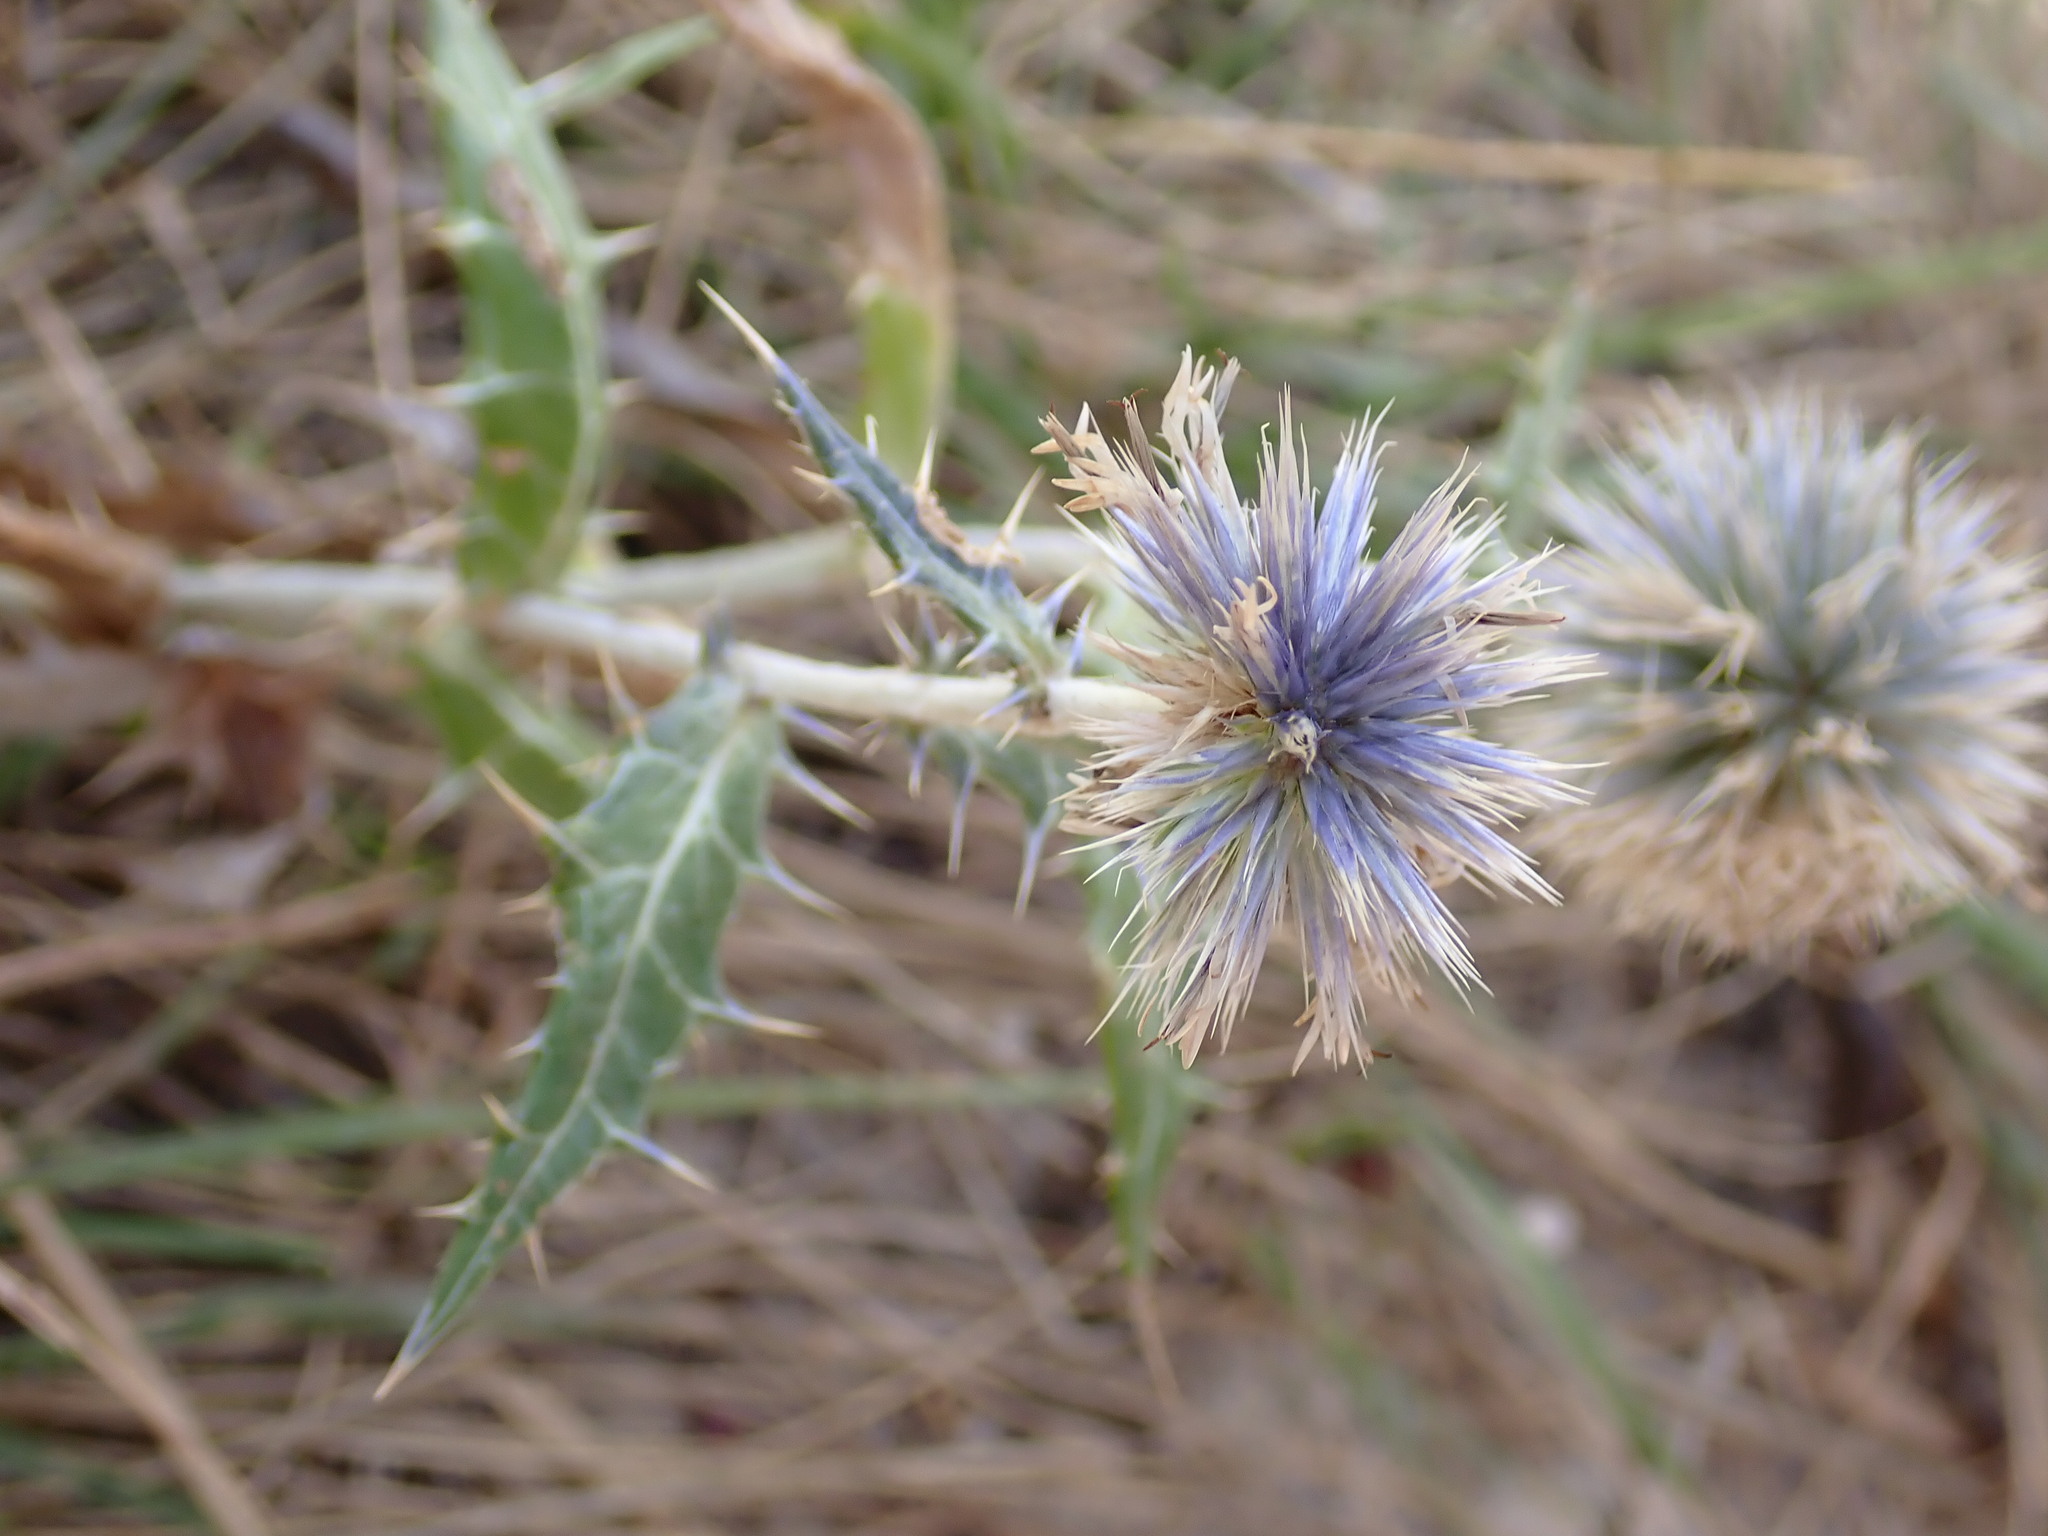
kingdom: Plantae
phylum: Tracheophyta
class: Magnoliopsida
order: Asterales
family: Asteraceae
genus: Echinops
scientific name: Echinops ritro
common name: Globe thistle
